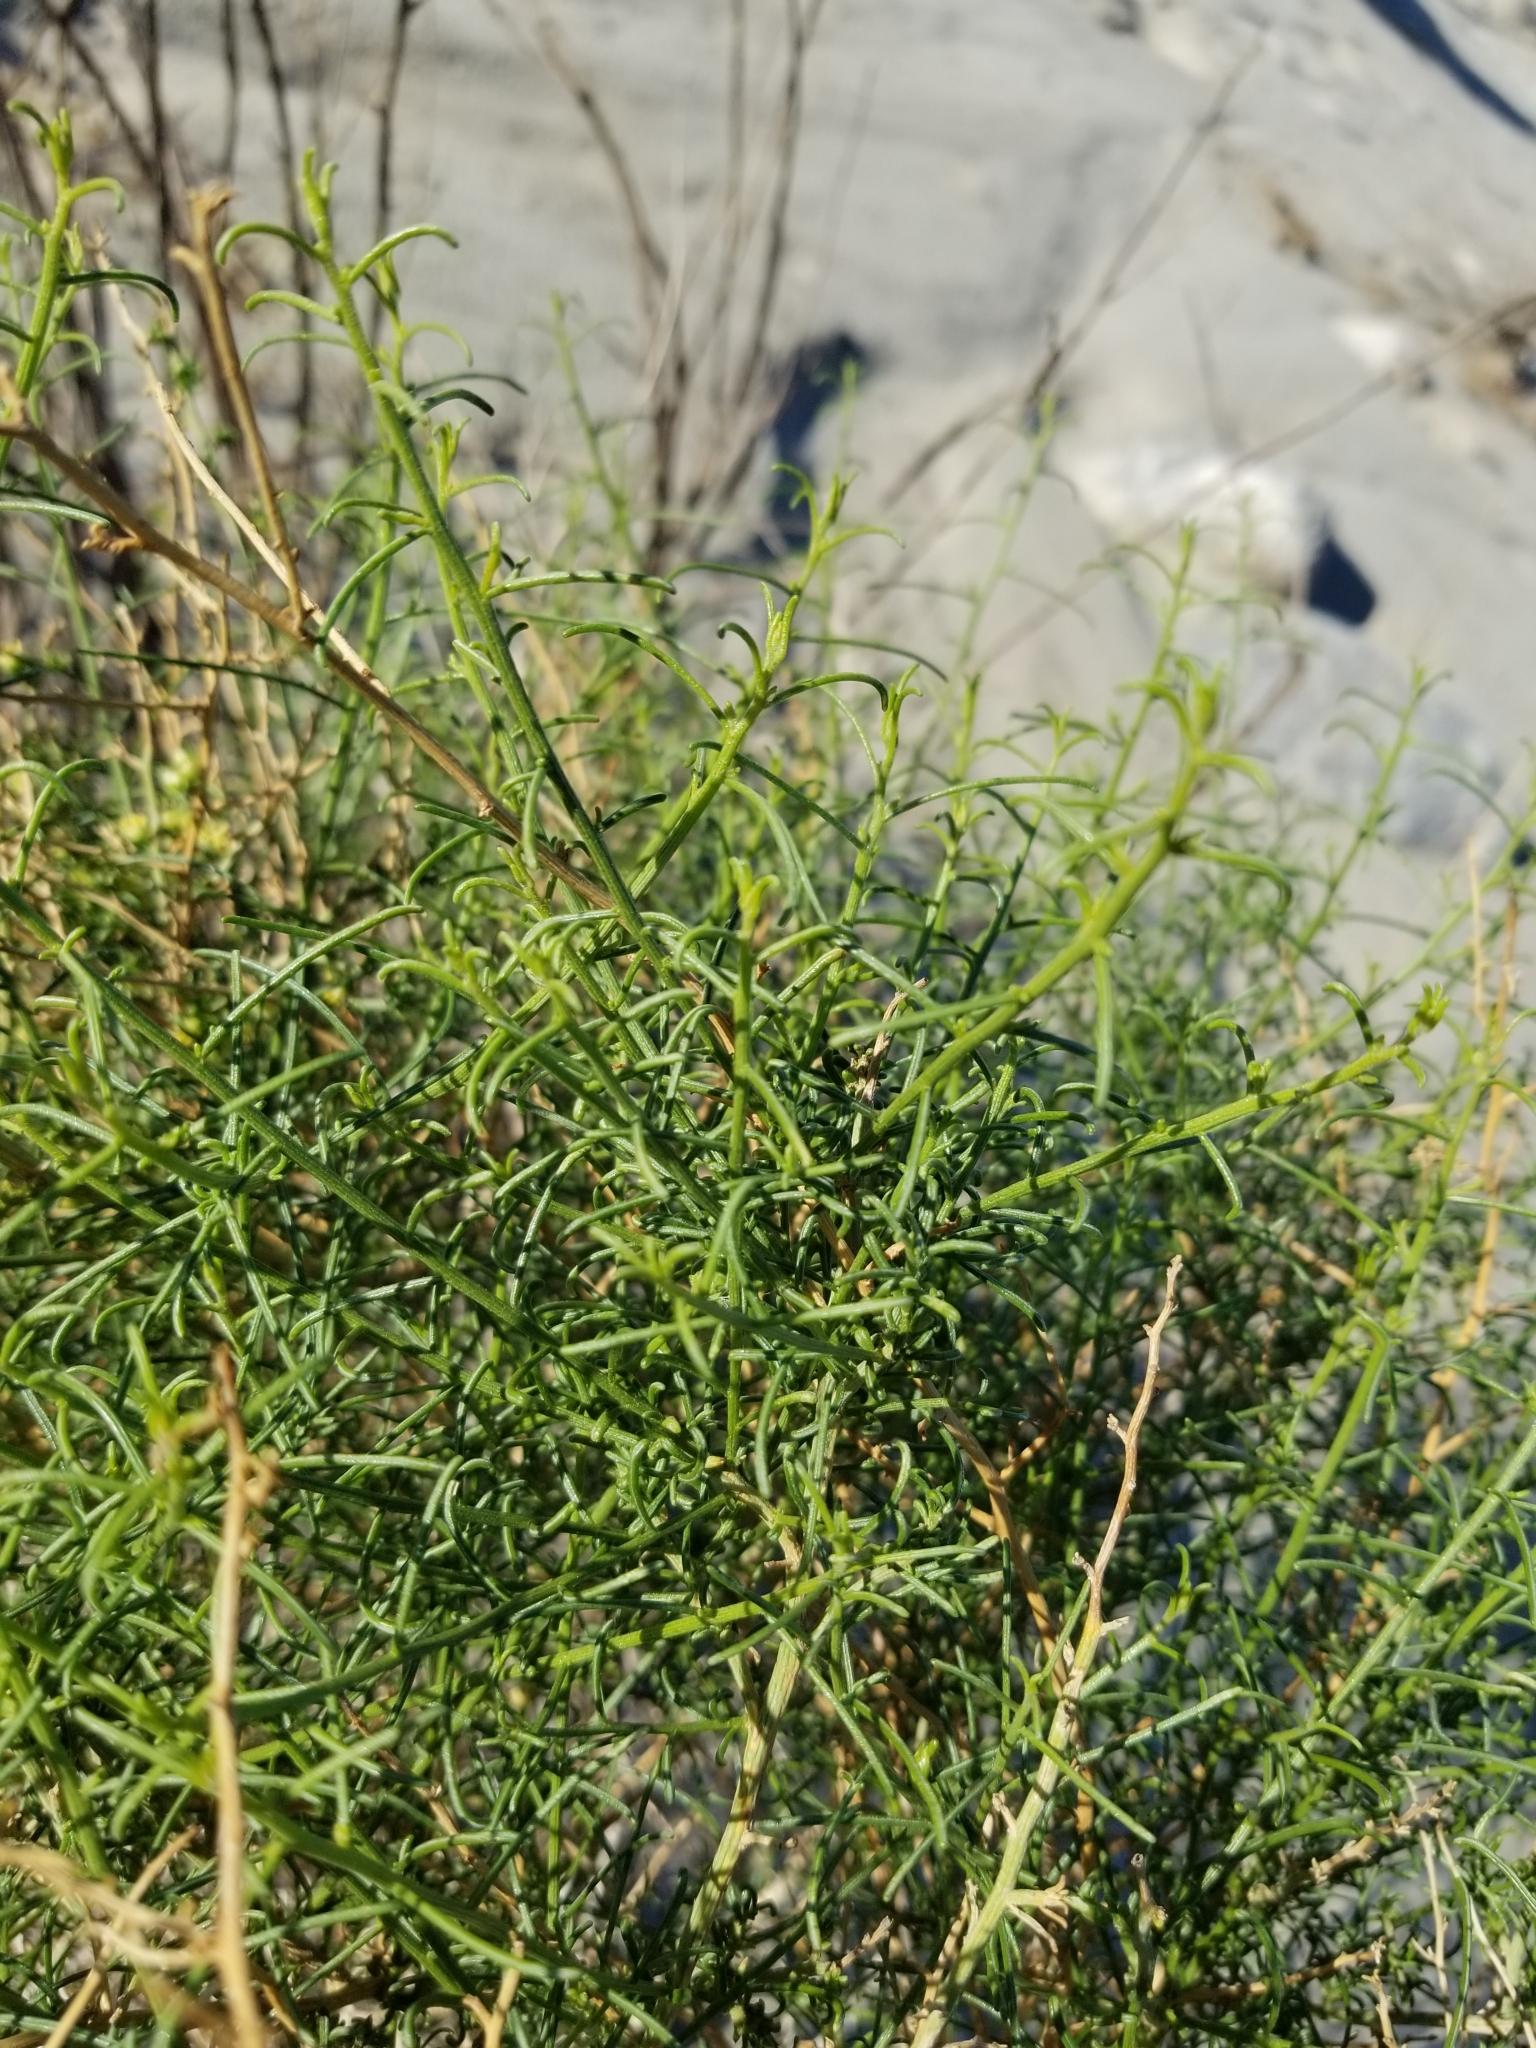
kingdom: Plantae
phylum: Tracheophyta
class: Magnoliopsida
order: Asterales
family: Asteraceae
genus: Ambrosia
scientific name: Ambrosia salsola
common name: Burrobrush
